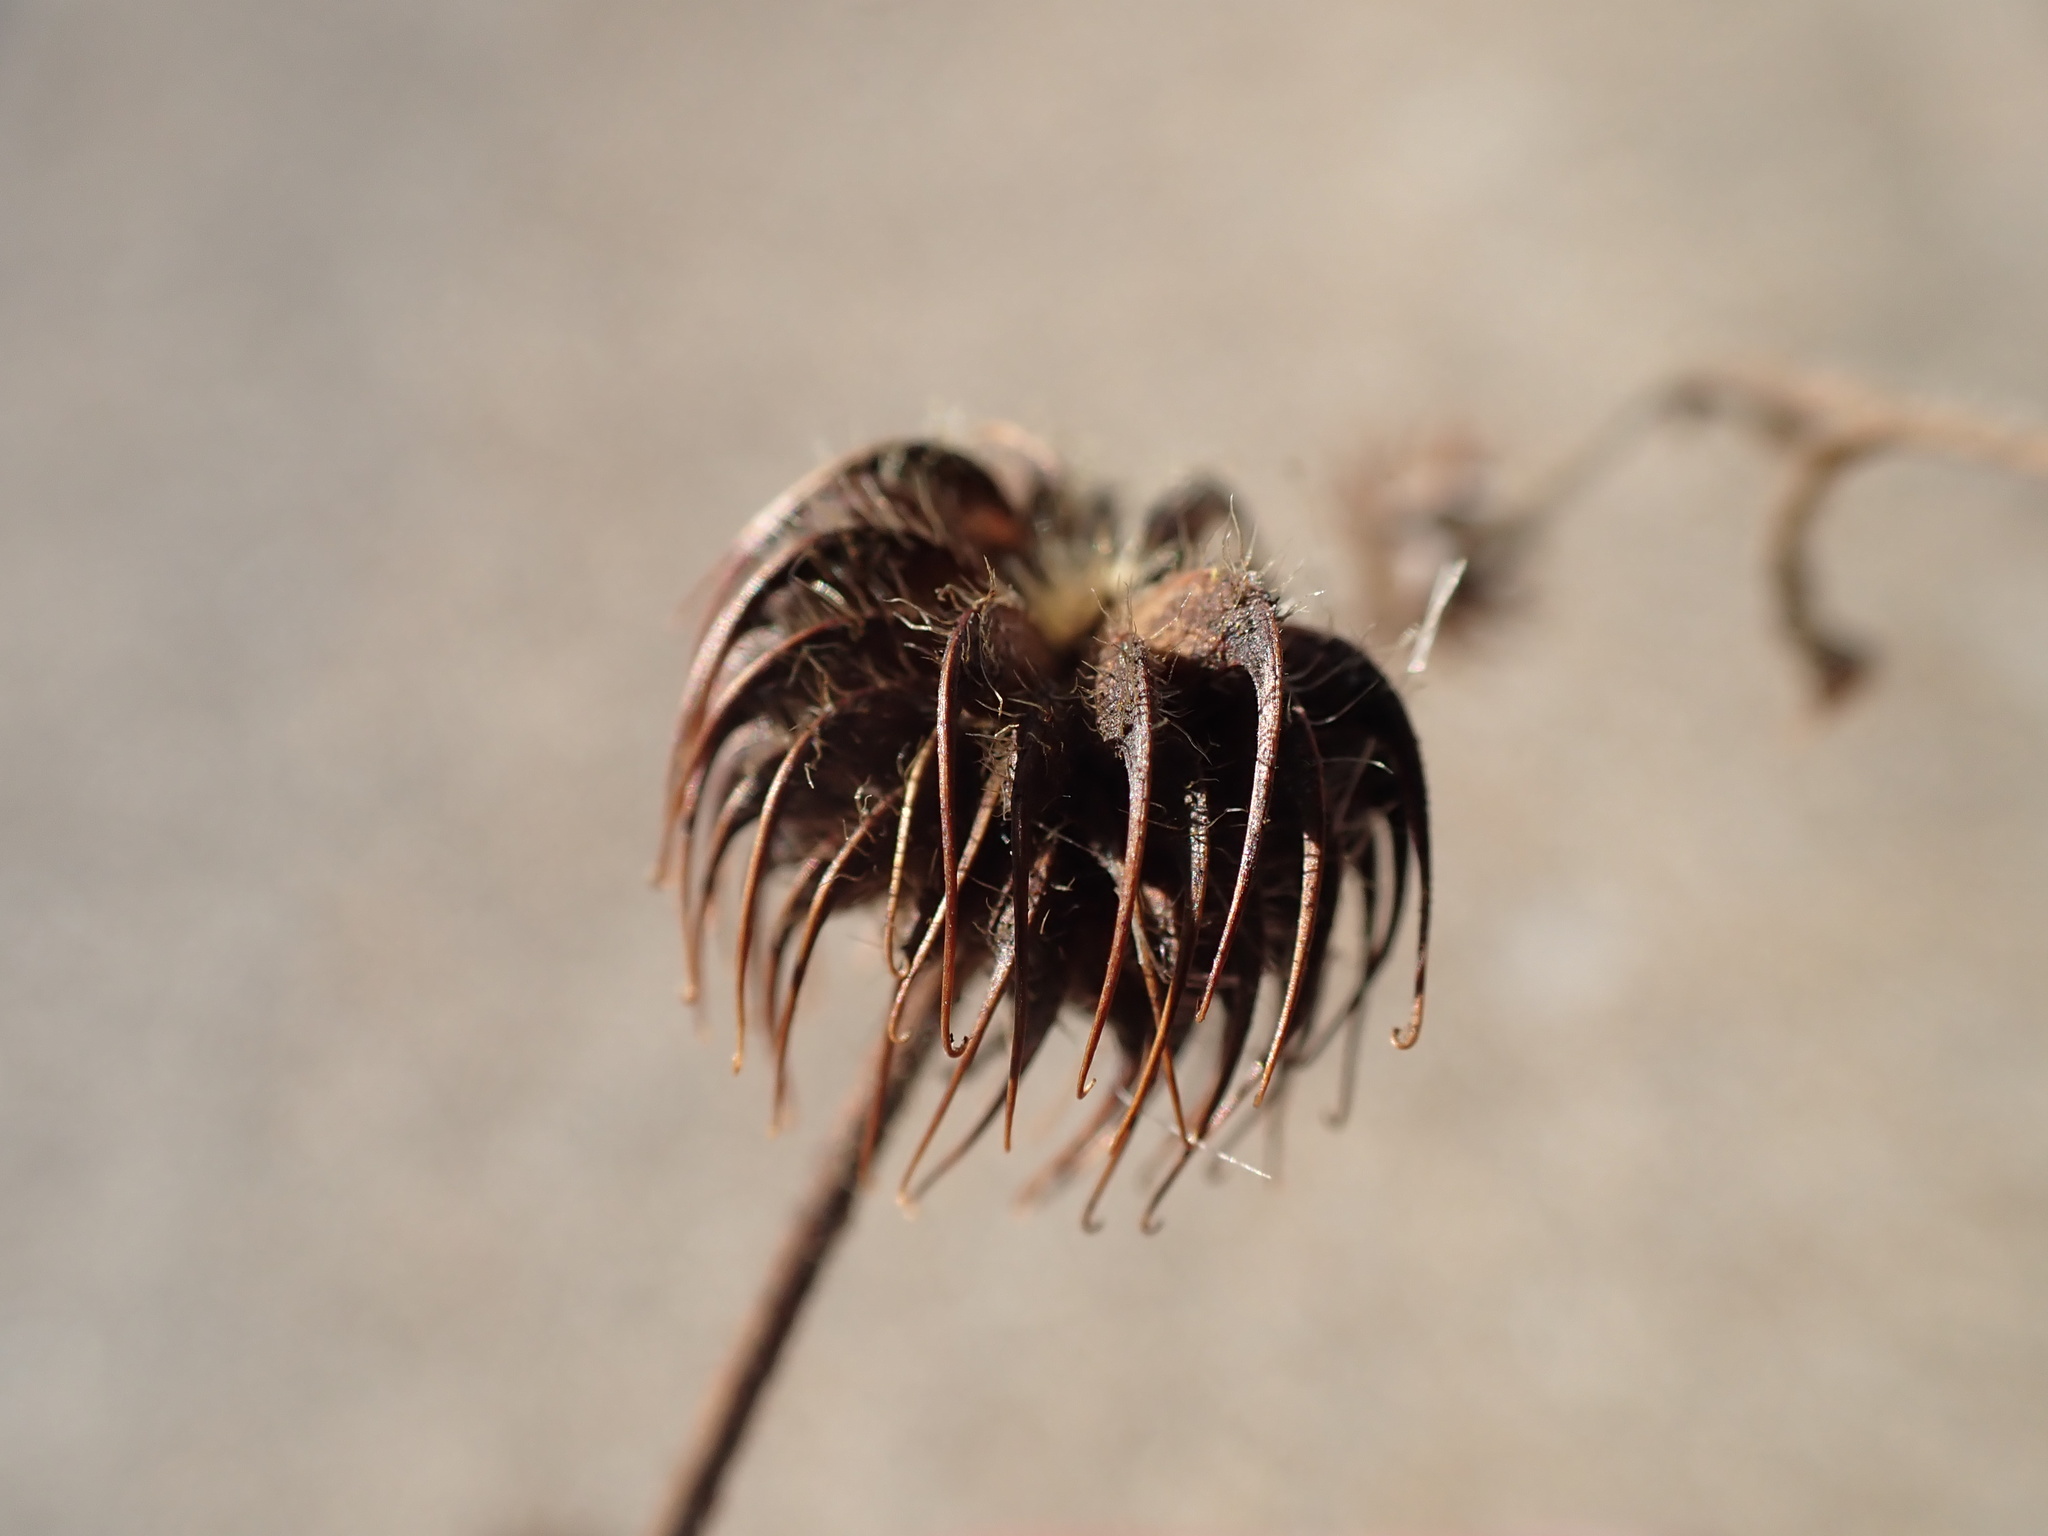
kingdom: Plantae
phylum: Tracheophyta
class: Magnoliopsida
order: Rosales
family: Rosaceae
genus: Geum
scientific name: Geum urbanum
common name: Wood avens
